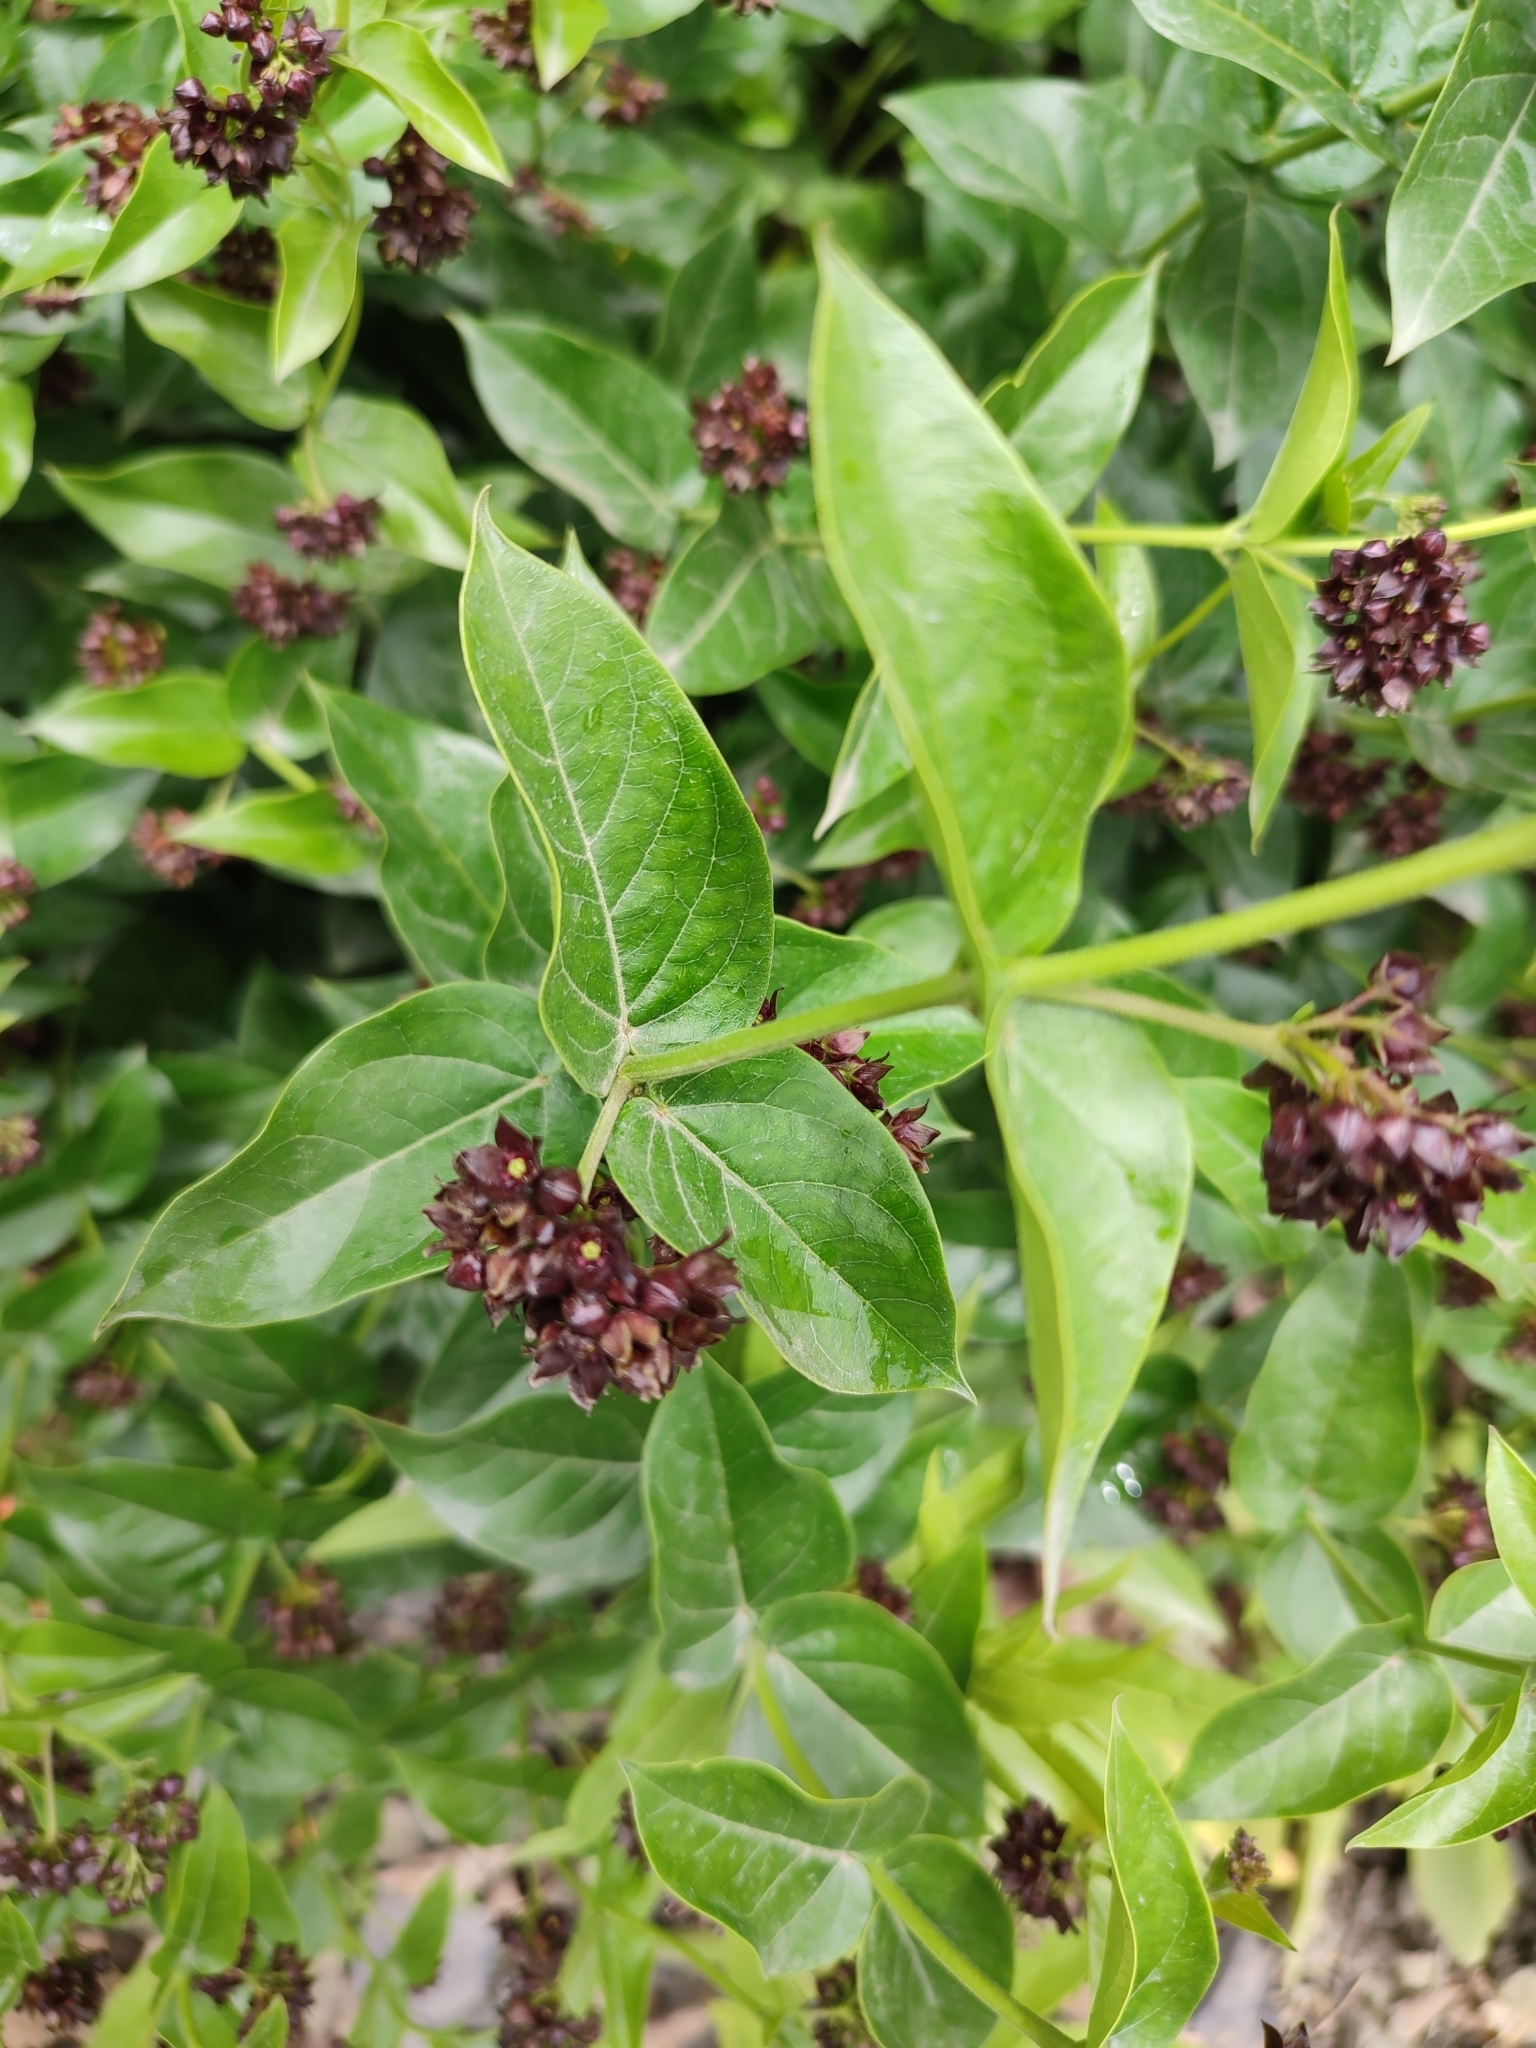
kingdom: Plantae
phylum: Tracheophyta
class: Magnoliopsida
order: Gentianales
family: Apocynaceae
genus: Vincetoxicum
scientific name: Vincetoxicum funebre
